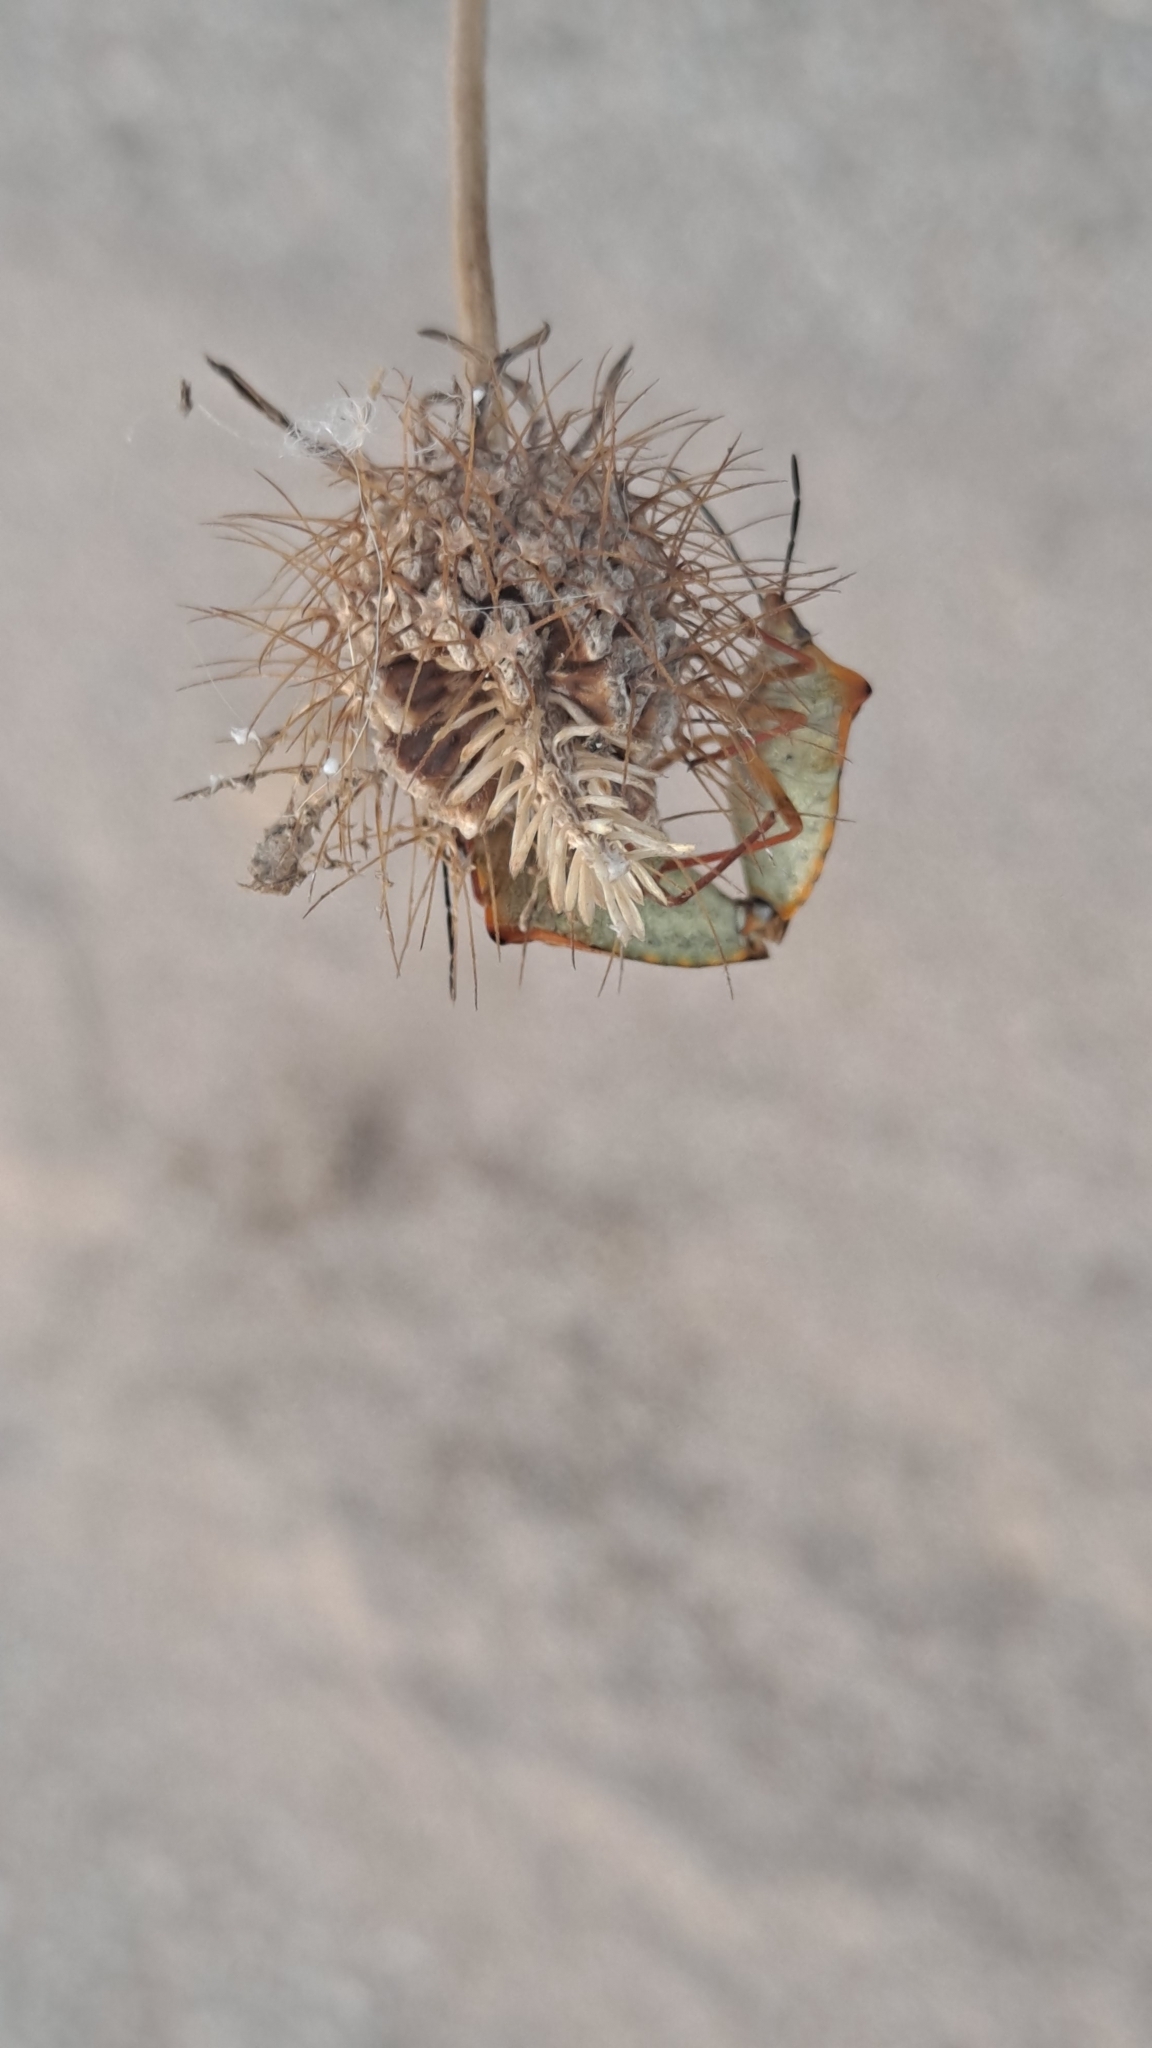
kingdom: Animalia
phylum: Arthropoda
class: Insecta
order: Hemiptera
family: Pentatomidae
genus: Carpocoris
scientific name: Carpocoris mediterraneus
